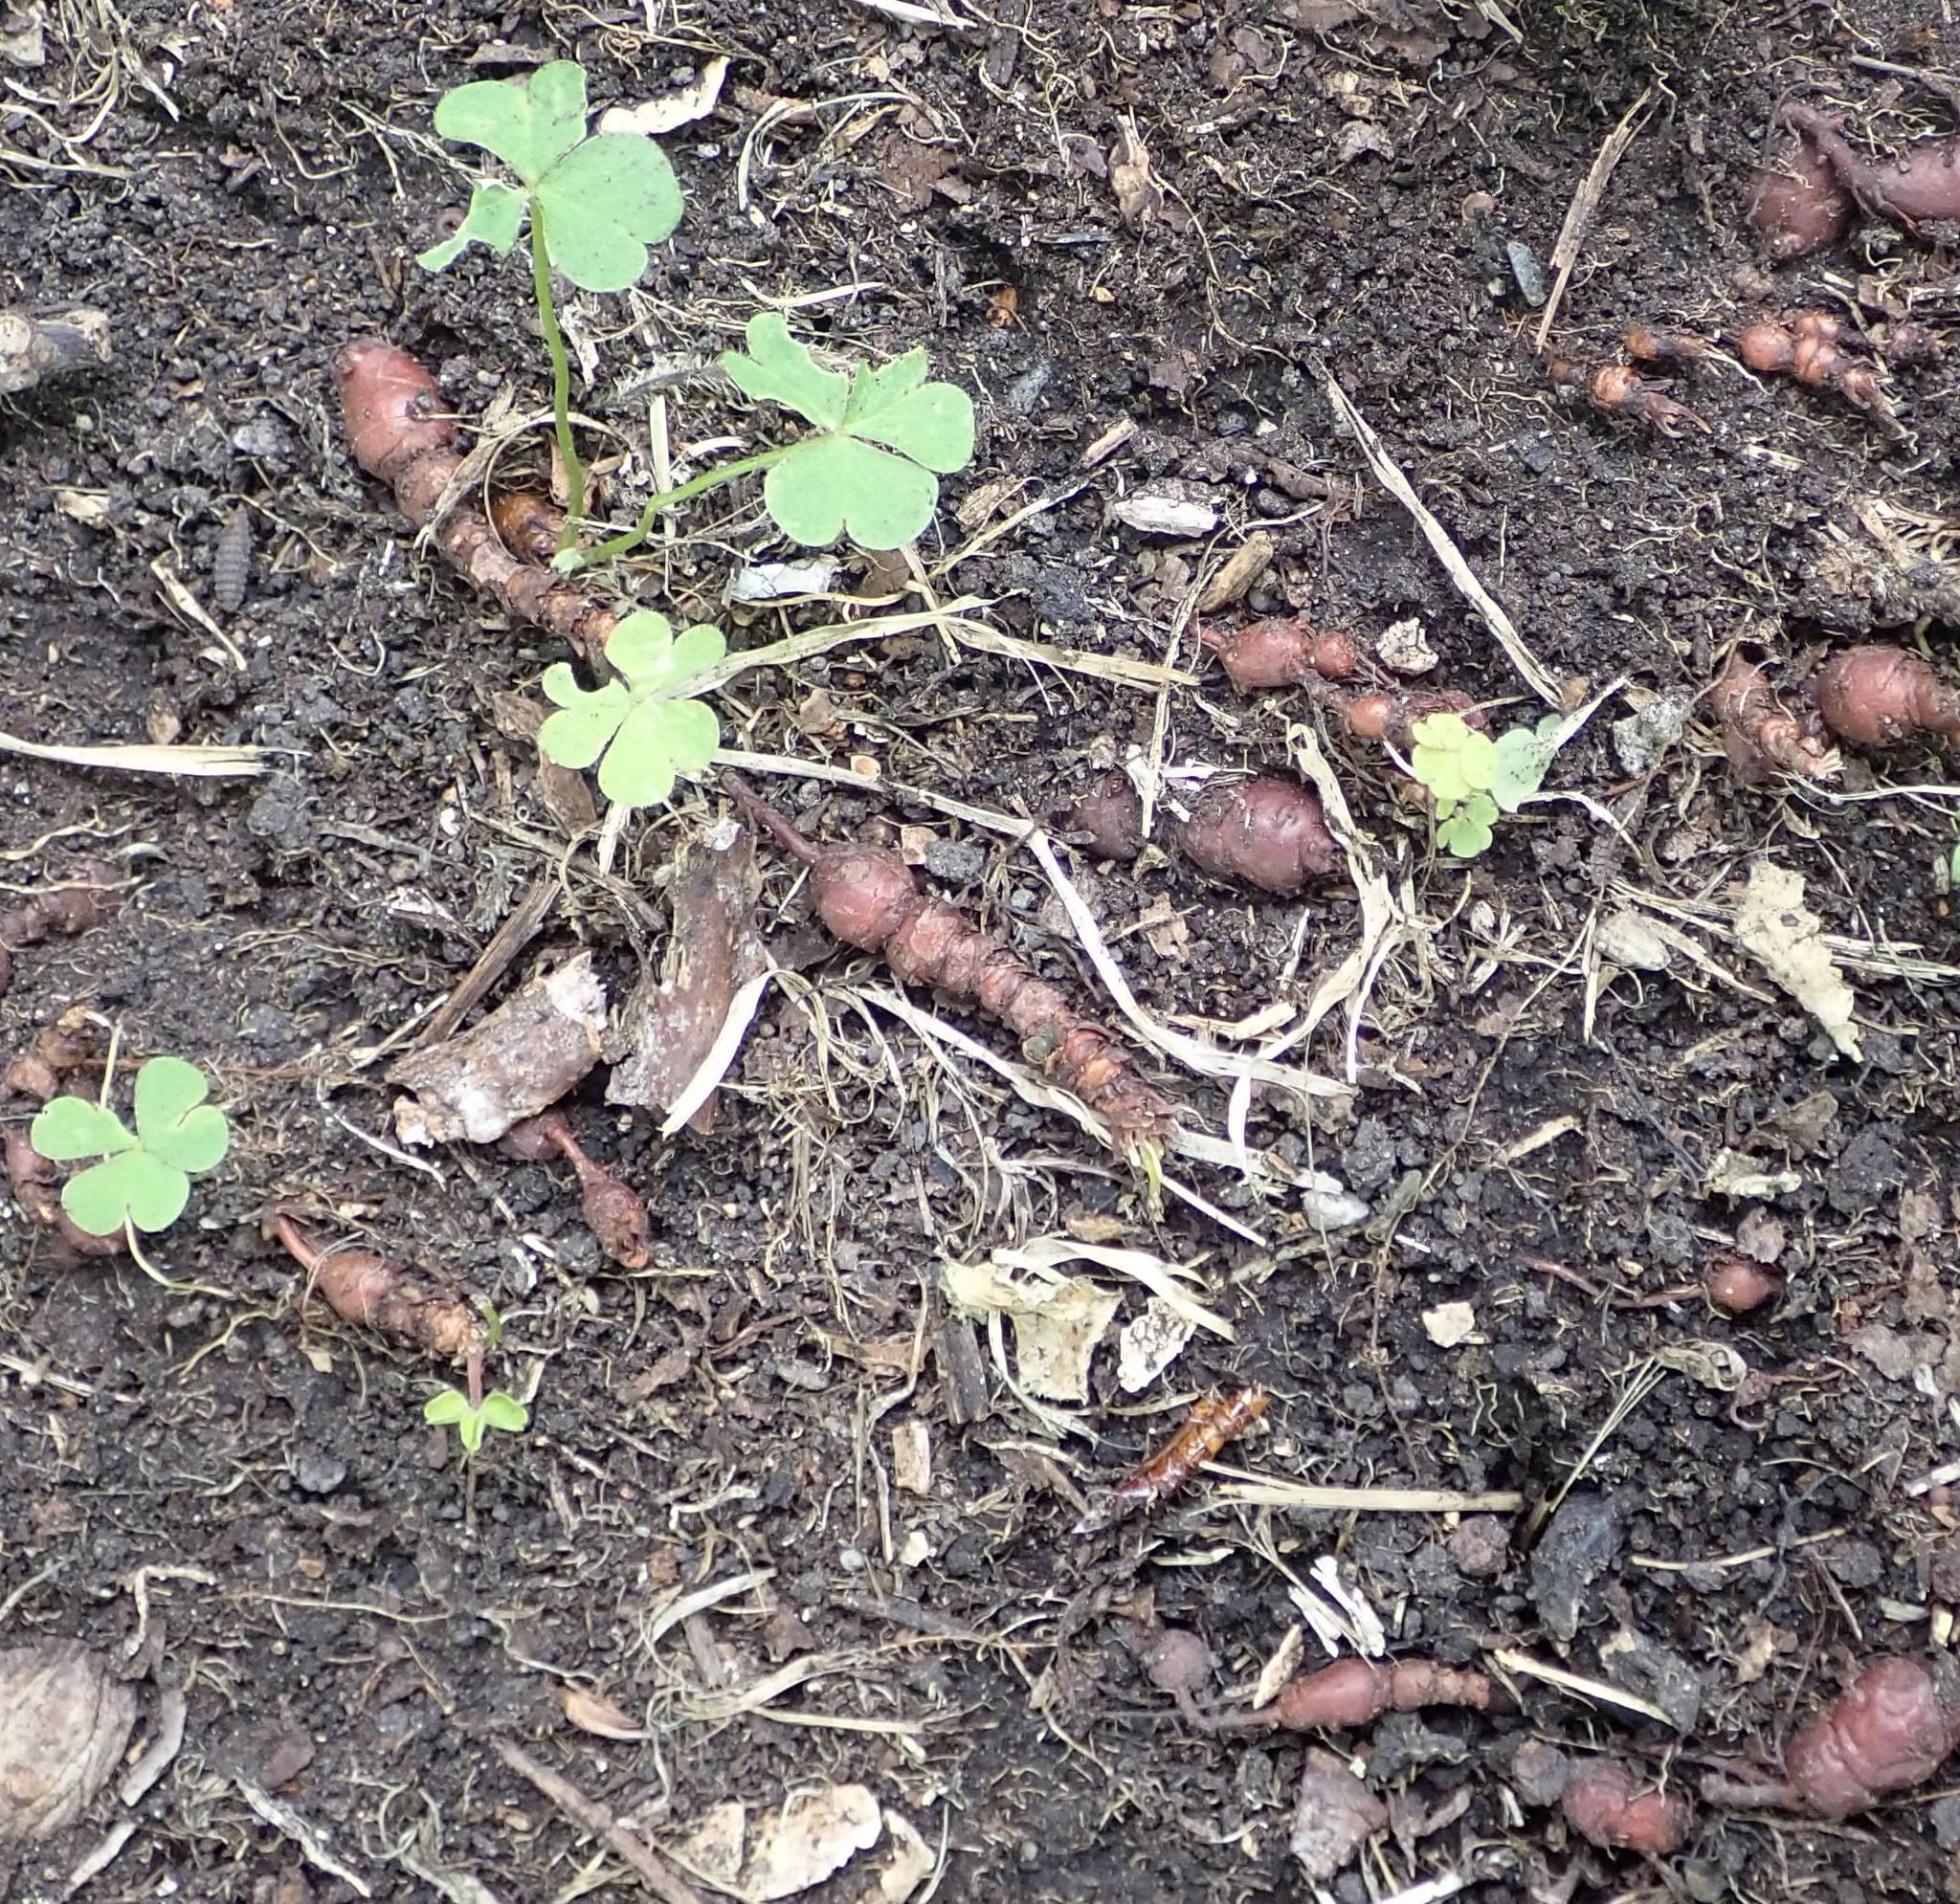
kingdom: Plantae
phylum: Tracheophyta
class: Magnoliopsida
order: Oxalidales
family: Oxalidaceae
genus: Oxalis
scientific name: Oxalis articulata
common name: Pink-sorrel
